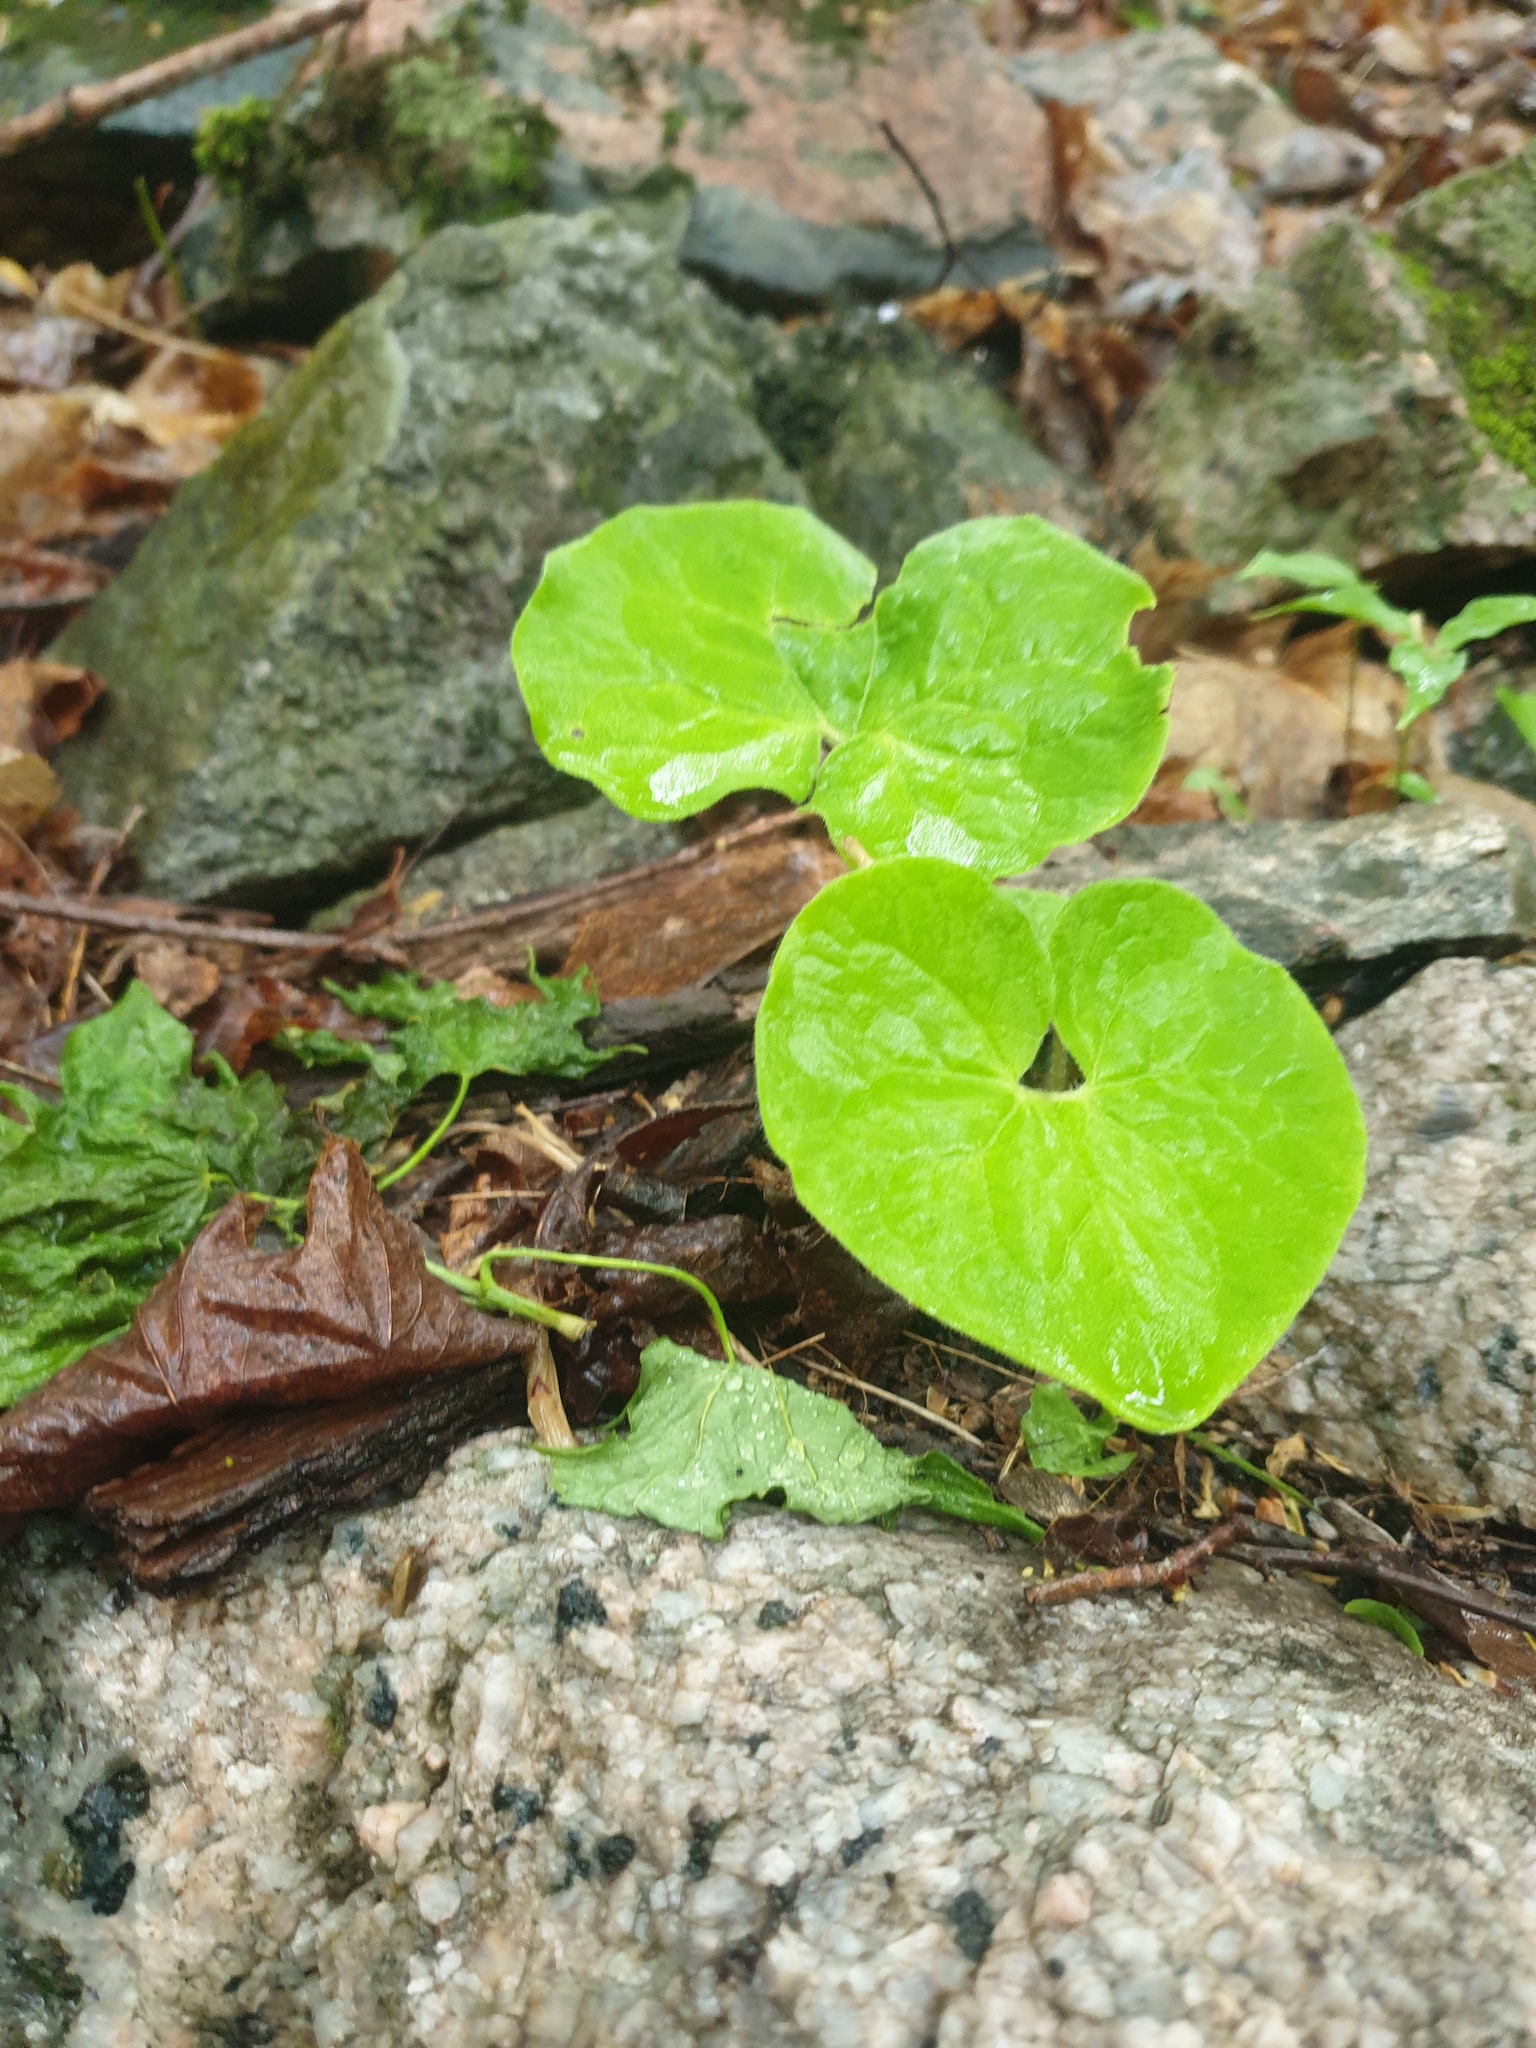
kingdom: Plantae
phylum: Tracheophyta
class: Magnoliopsida
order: Piperales
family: Aristolochiaceae
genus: Asarum
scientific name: Asarum canadense
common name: Wild ginger
